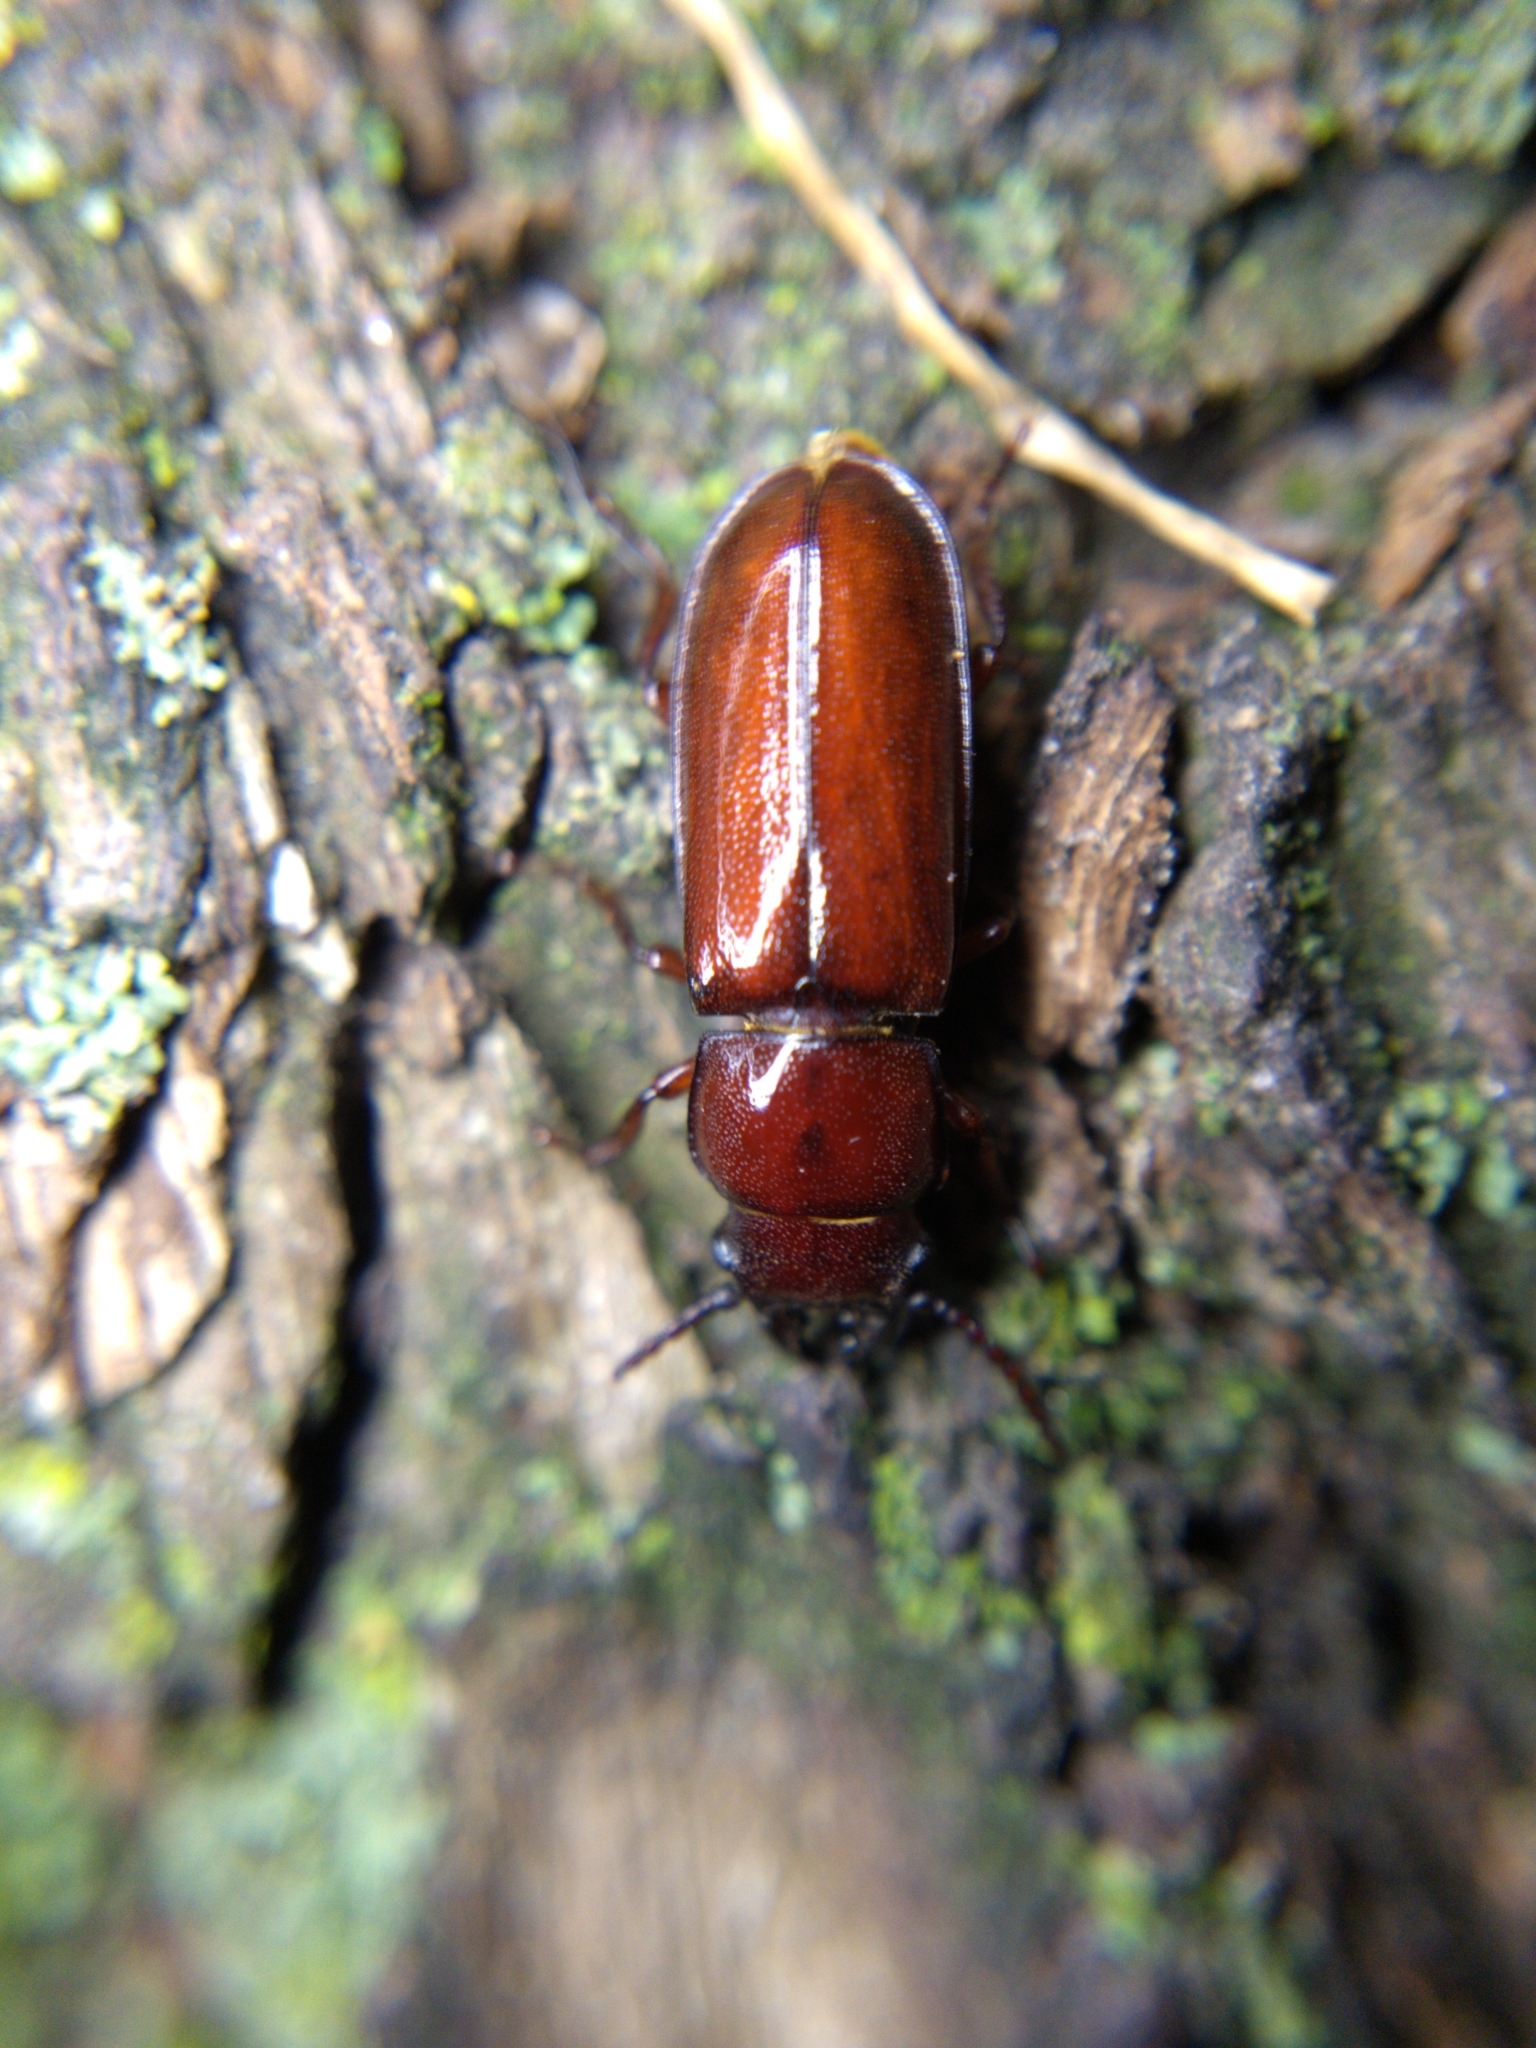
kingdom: Animalia
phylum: Arthropoda
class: Insecta
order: Coleoptera
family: Cerambycidae
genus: Neandra
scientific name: Neandra brunnea
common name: Pole borer
